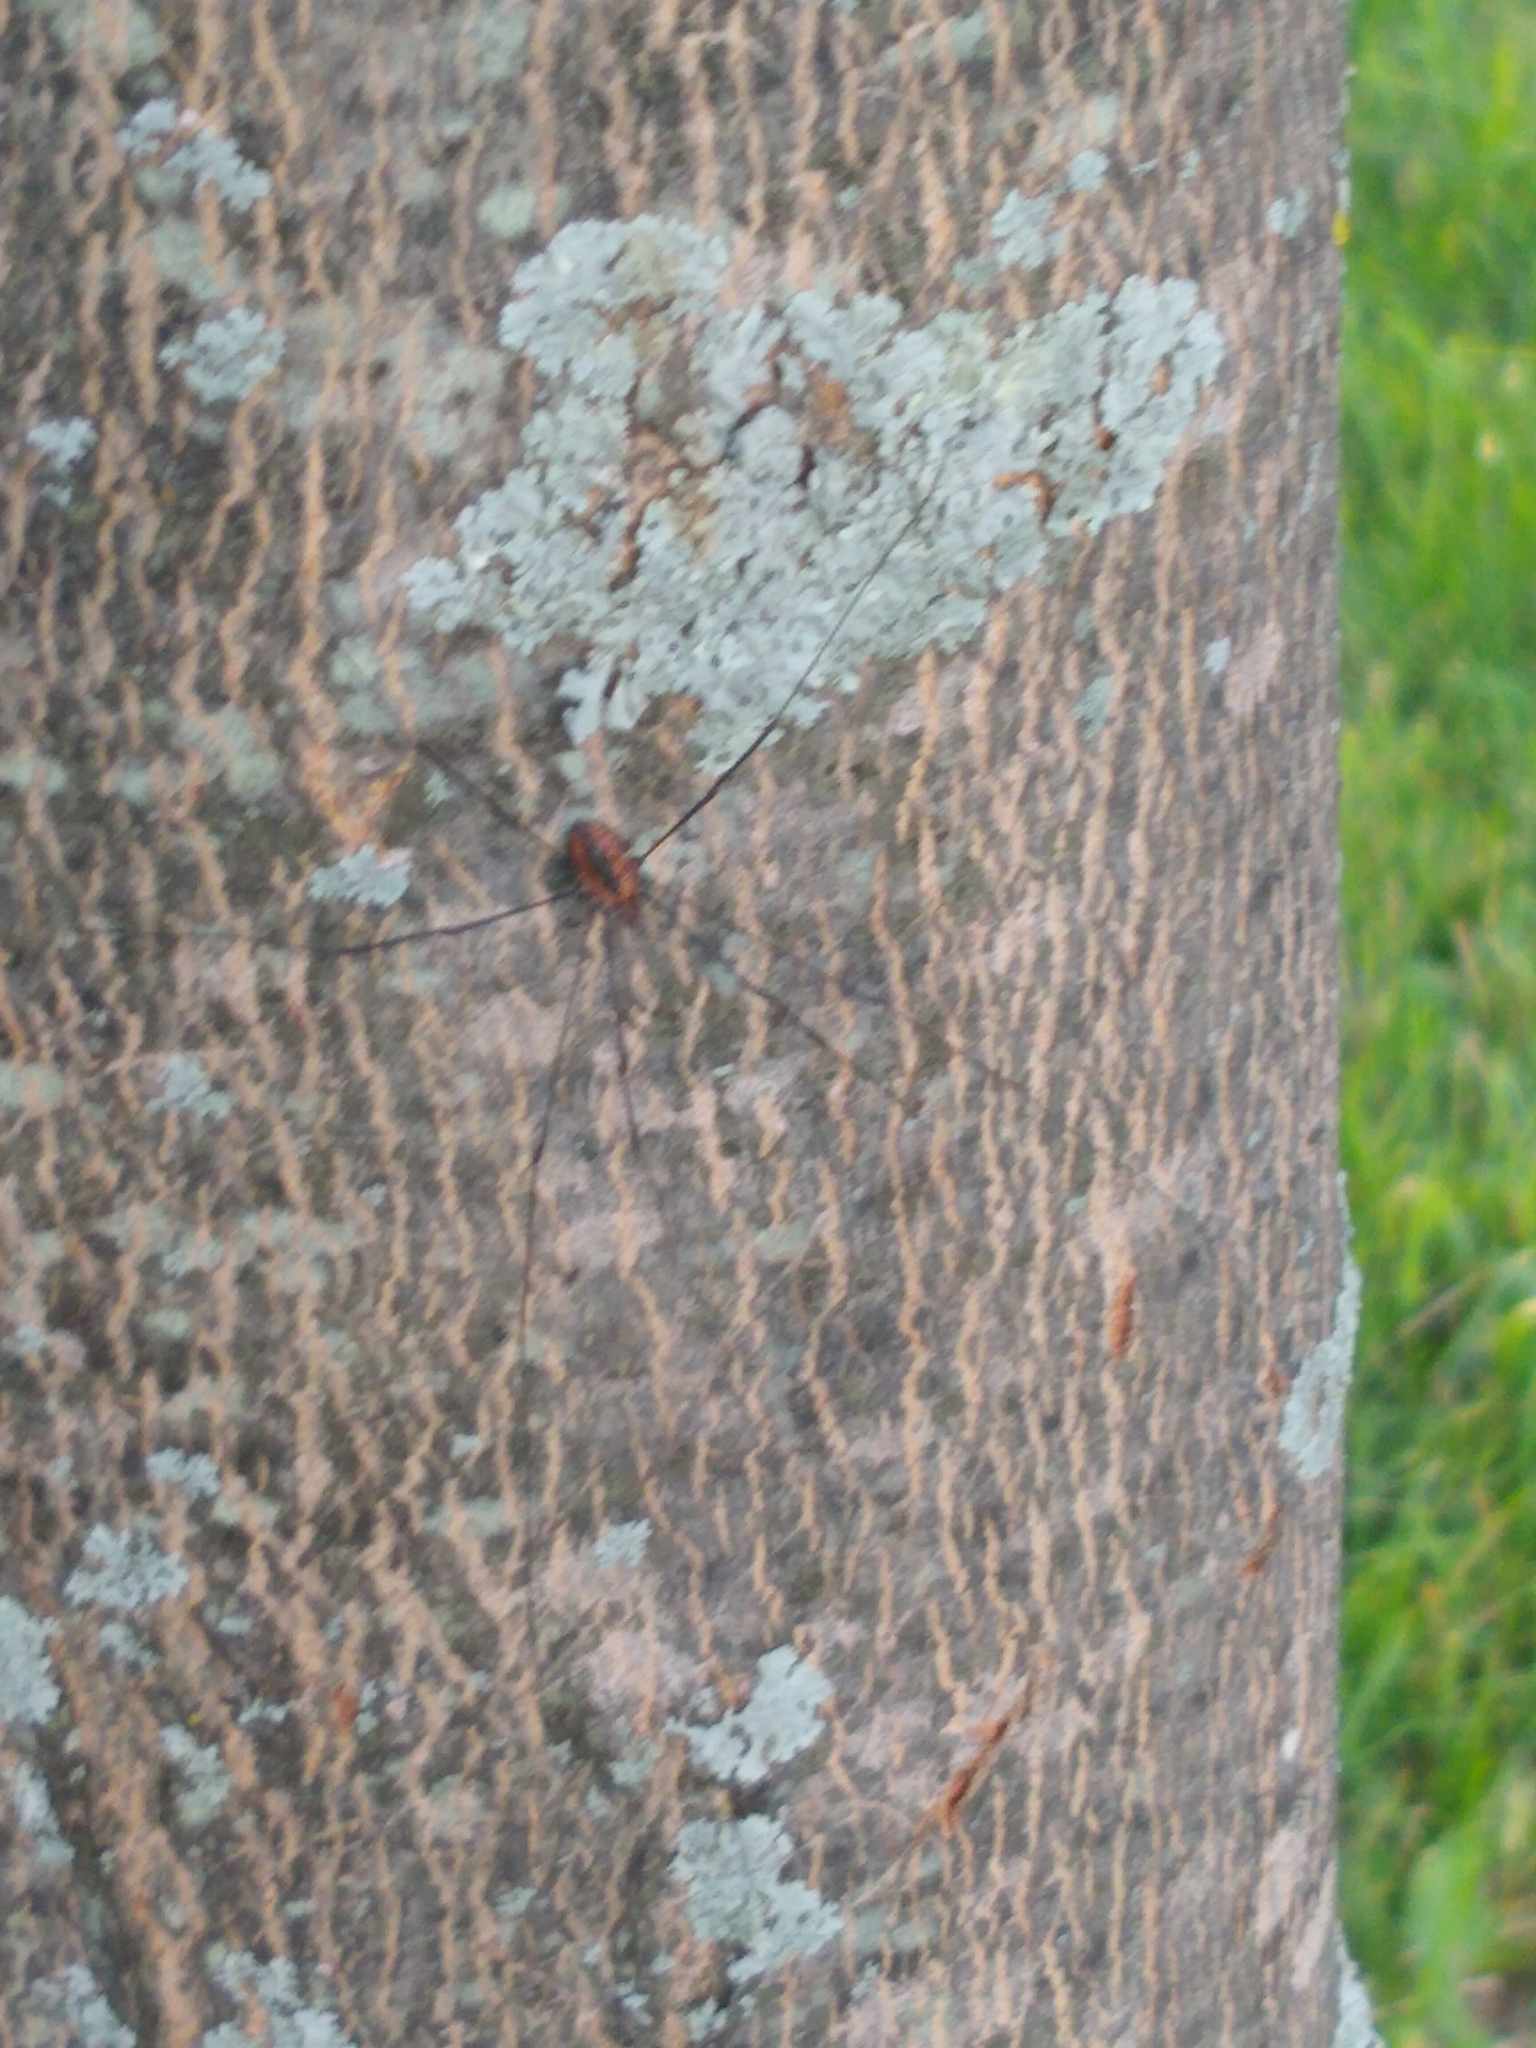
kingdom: Animalia
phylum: Arthropoda
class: Arachnida
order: Opiliones
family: Sclerosomatidae
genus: Leiobunum
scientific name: Leiobunum vittatum
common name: Eastern harvestman
